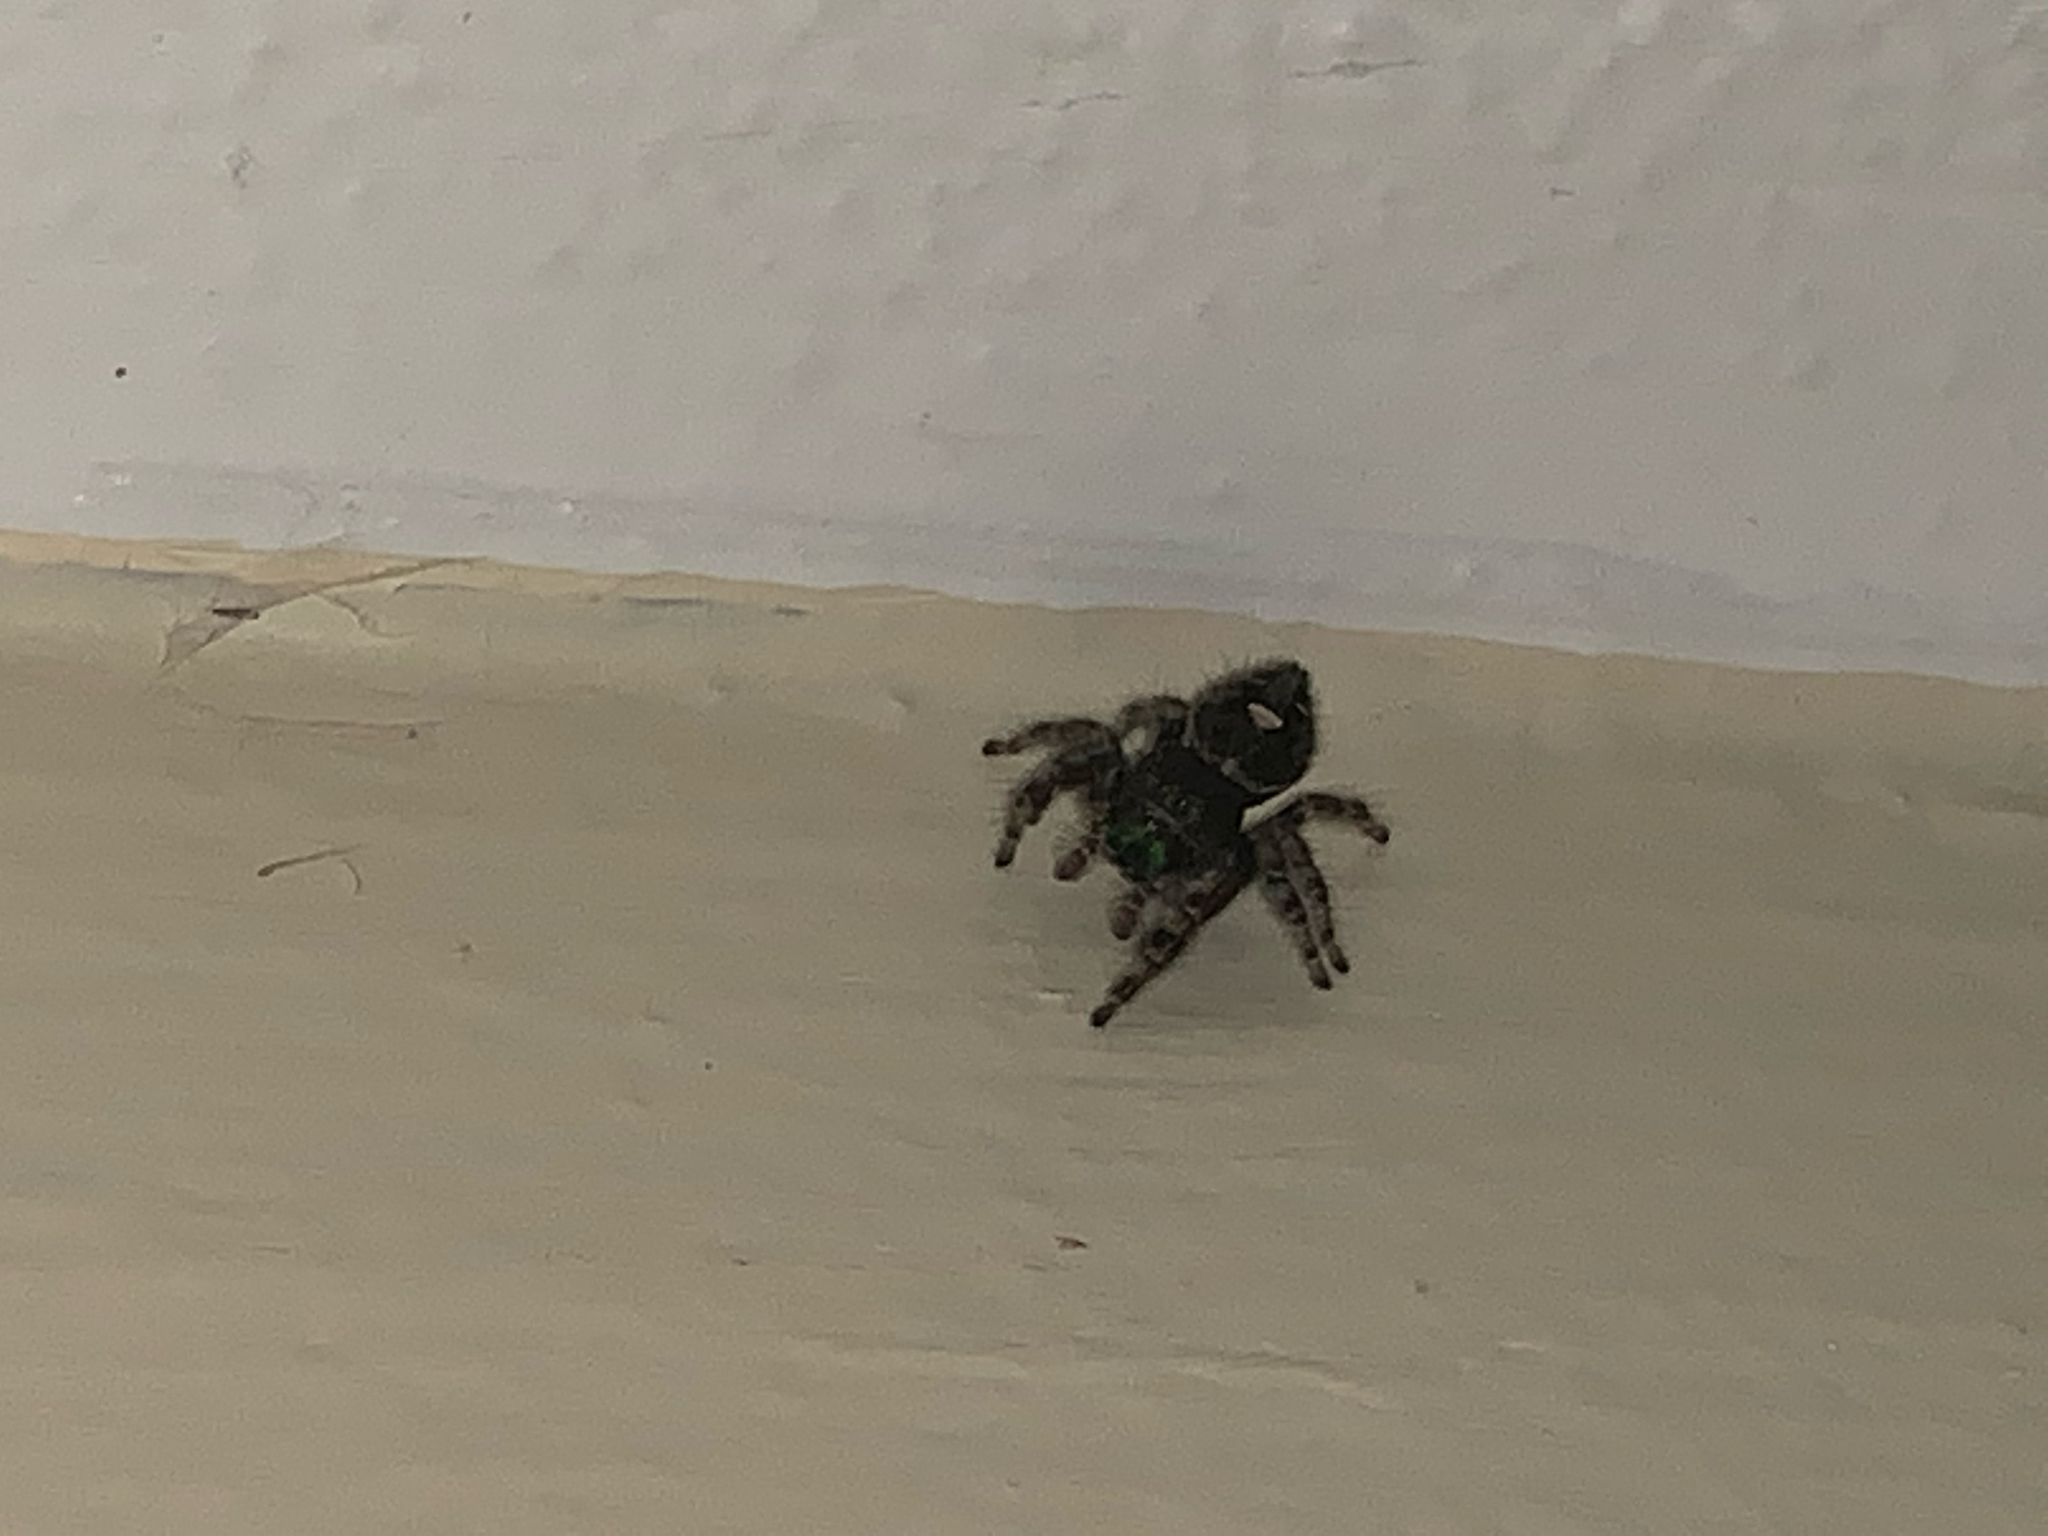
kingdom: Animalia
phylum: Arthropoda
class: Arachnida
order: Araneae
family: Salticidae
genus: Phidippus
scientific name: Phidippus audax
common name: Bold jumper
